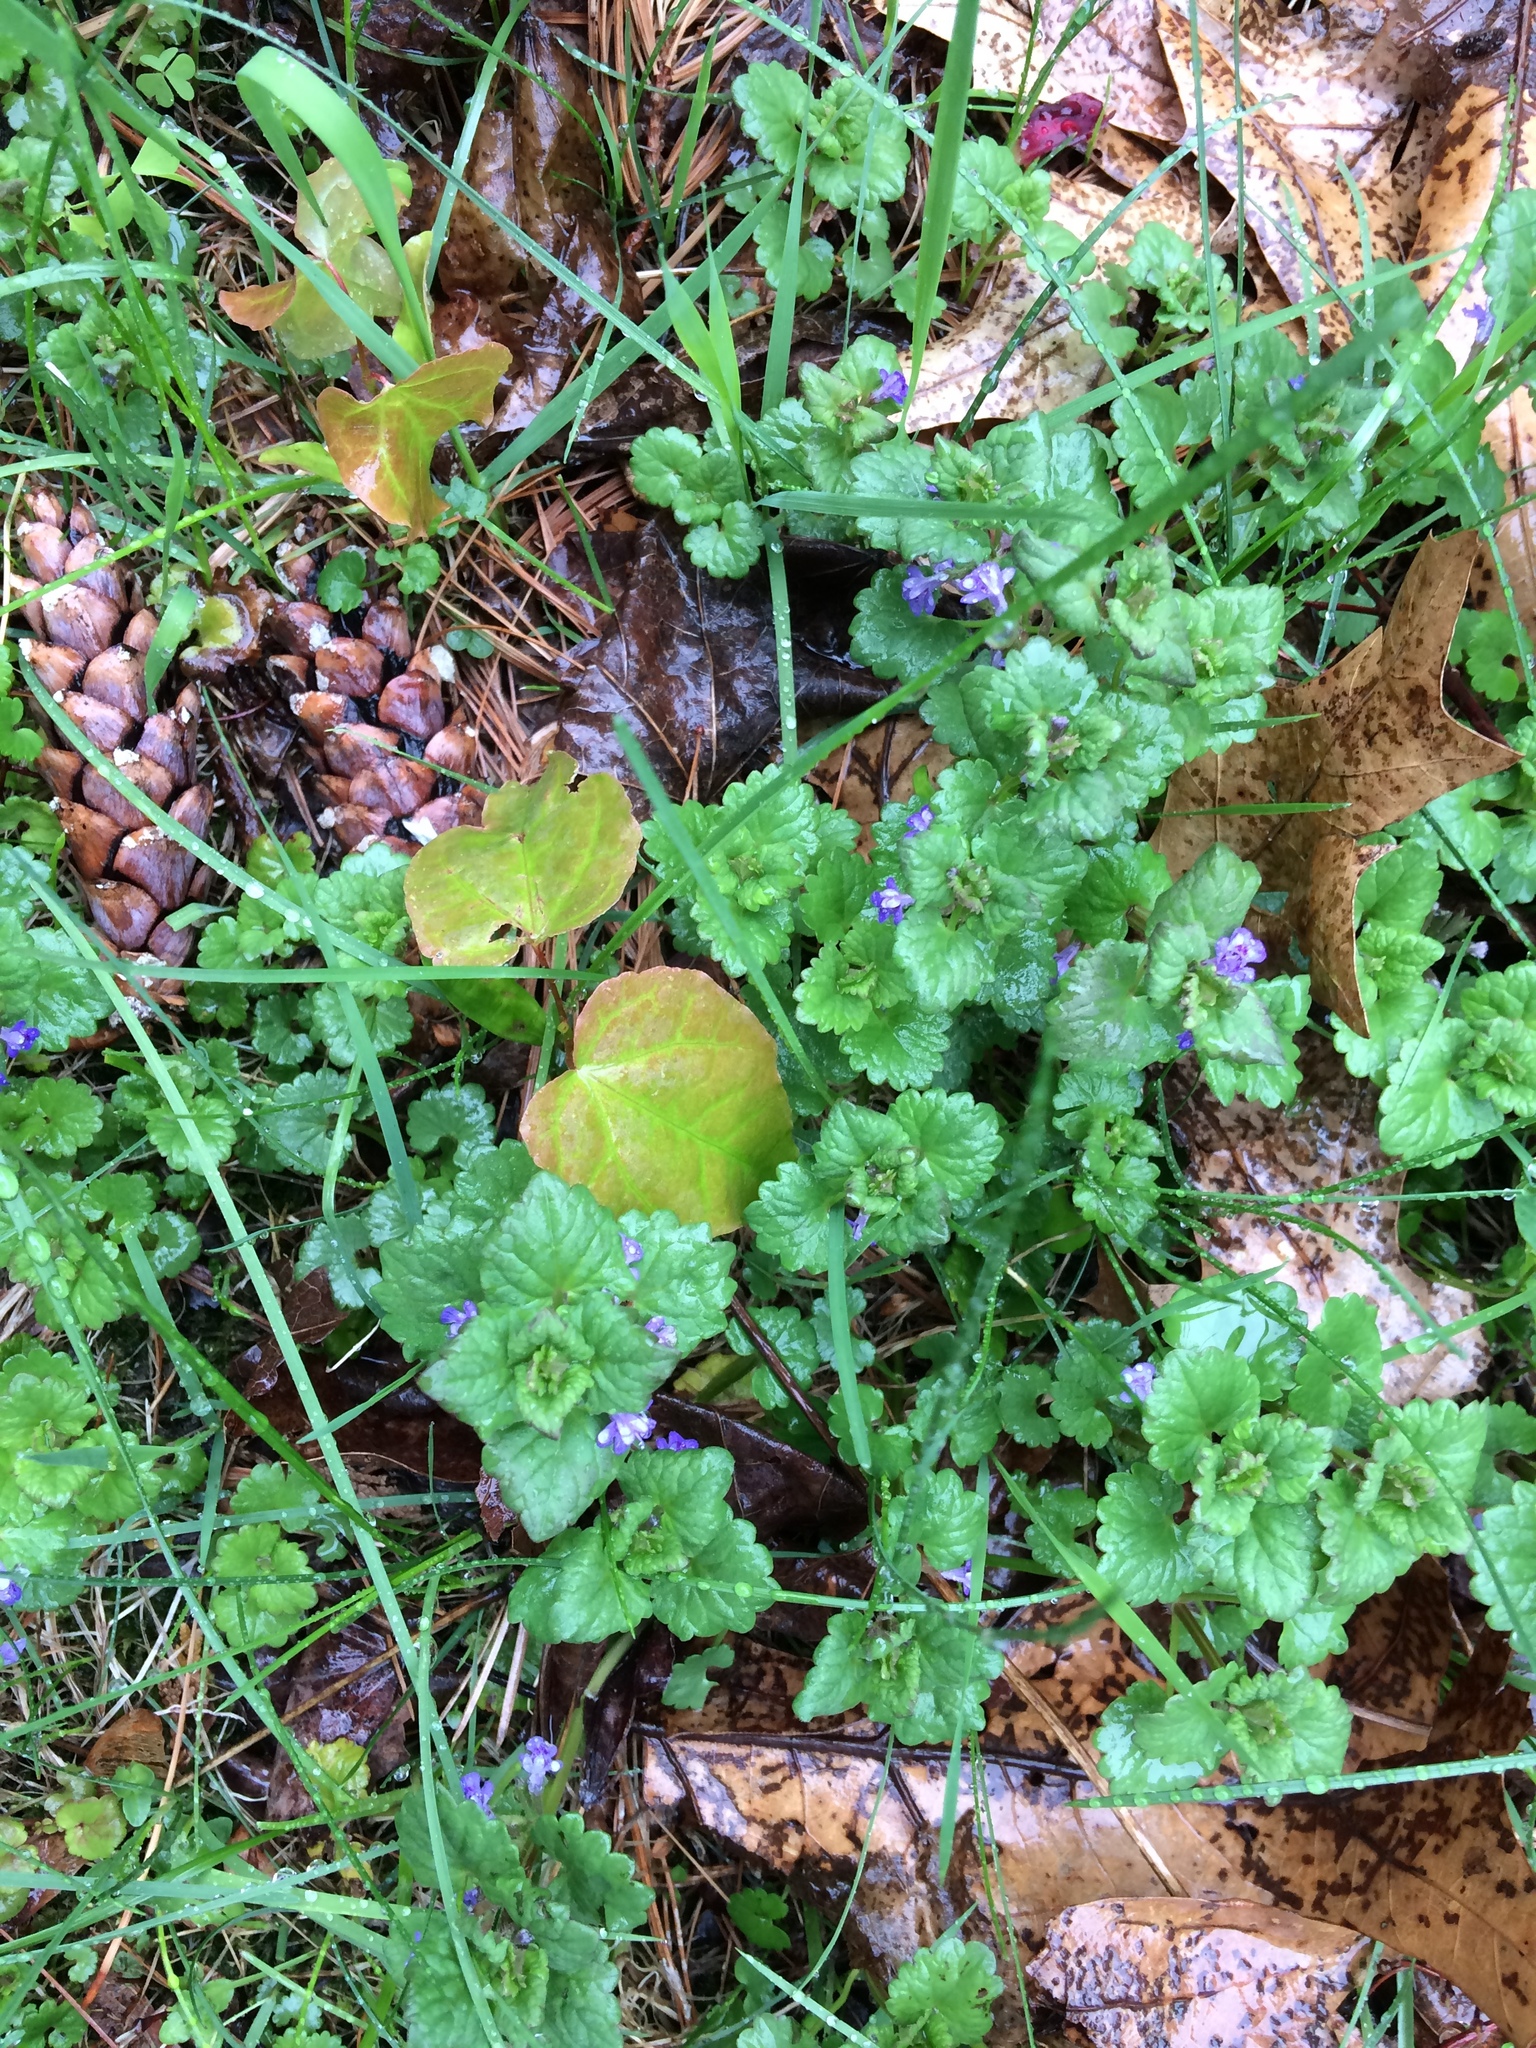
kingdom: Plantae
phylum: Tracheophyta
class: Magnoliopsida
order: Lamiales
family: Lamiaceae
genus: Glechoma
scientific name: Glechoma hederacea
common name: Ground ivy
